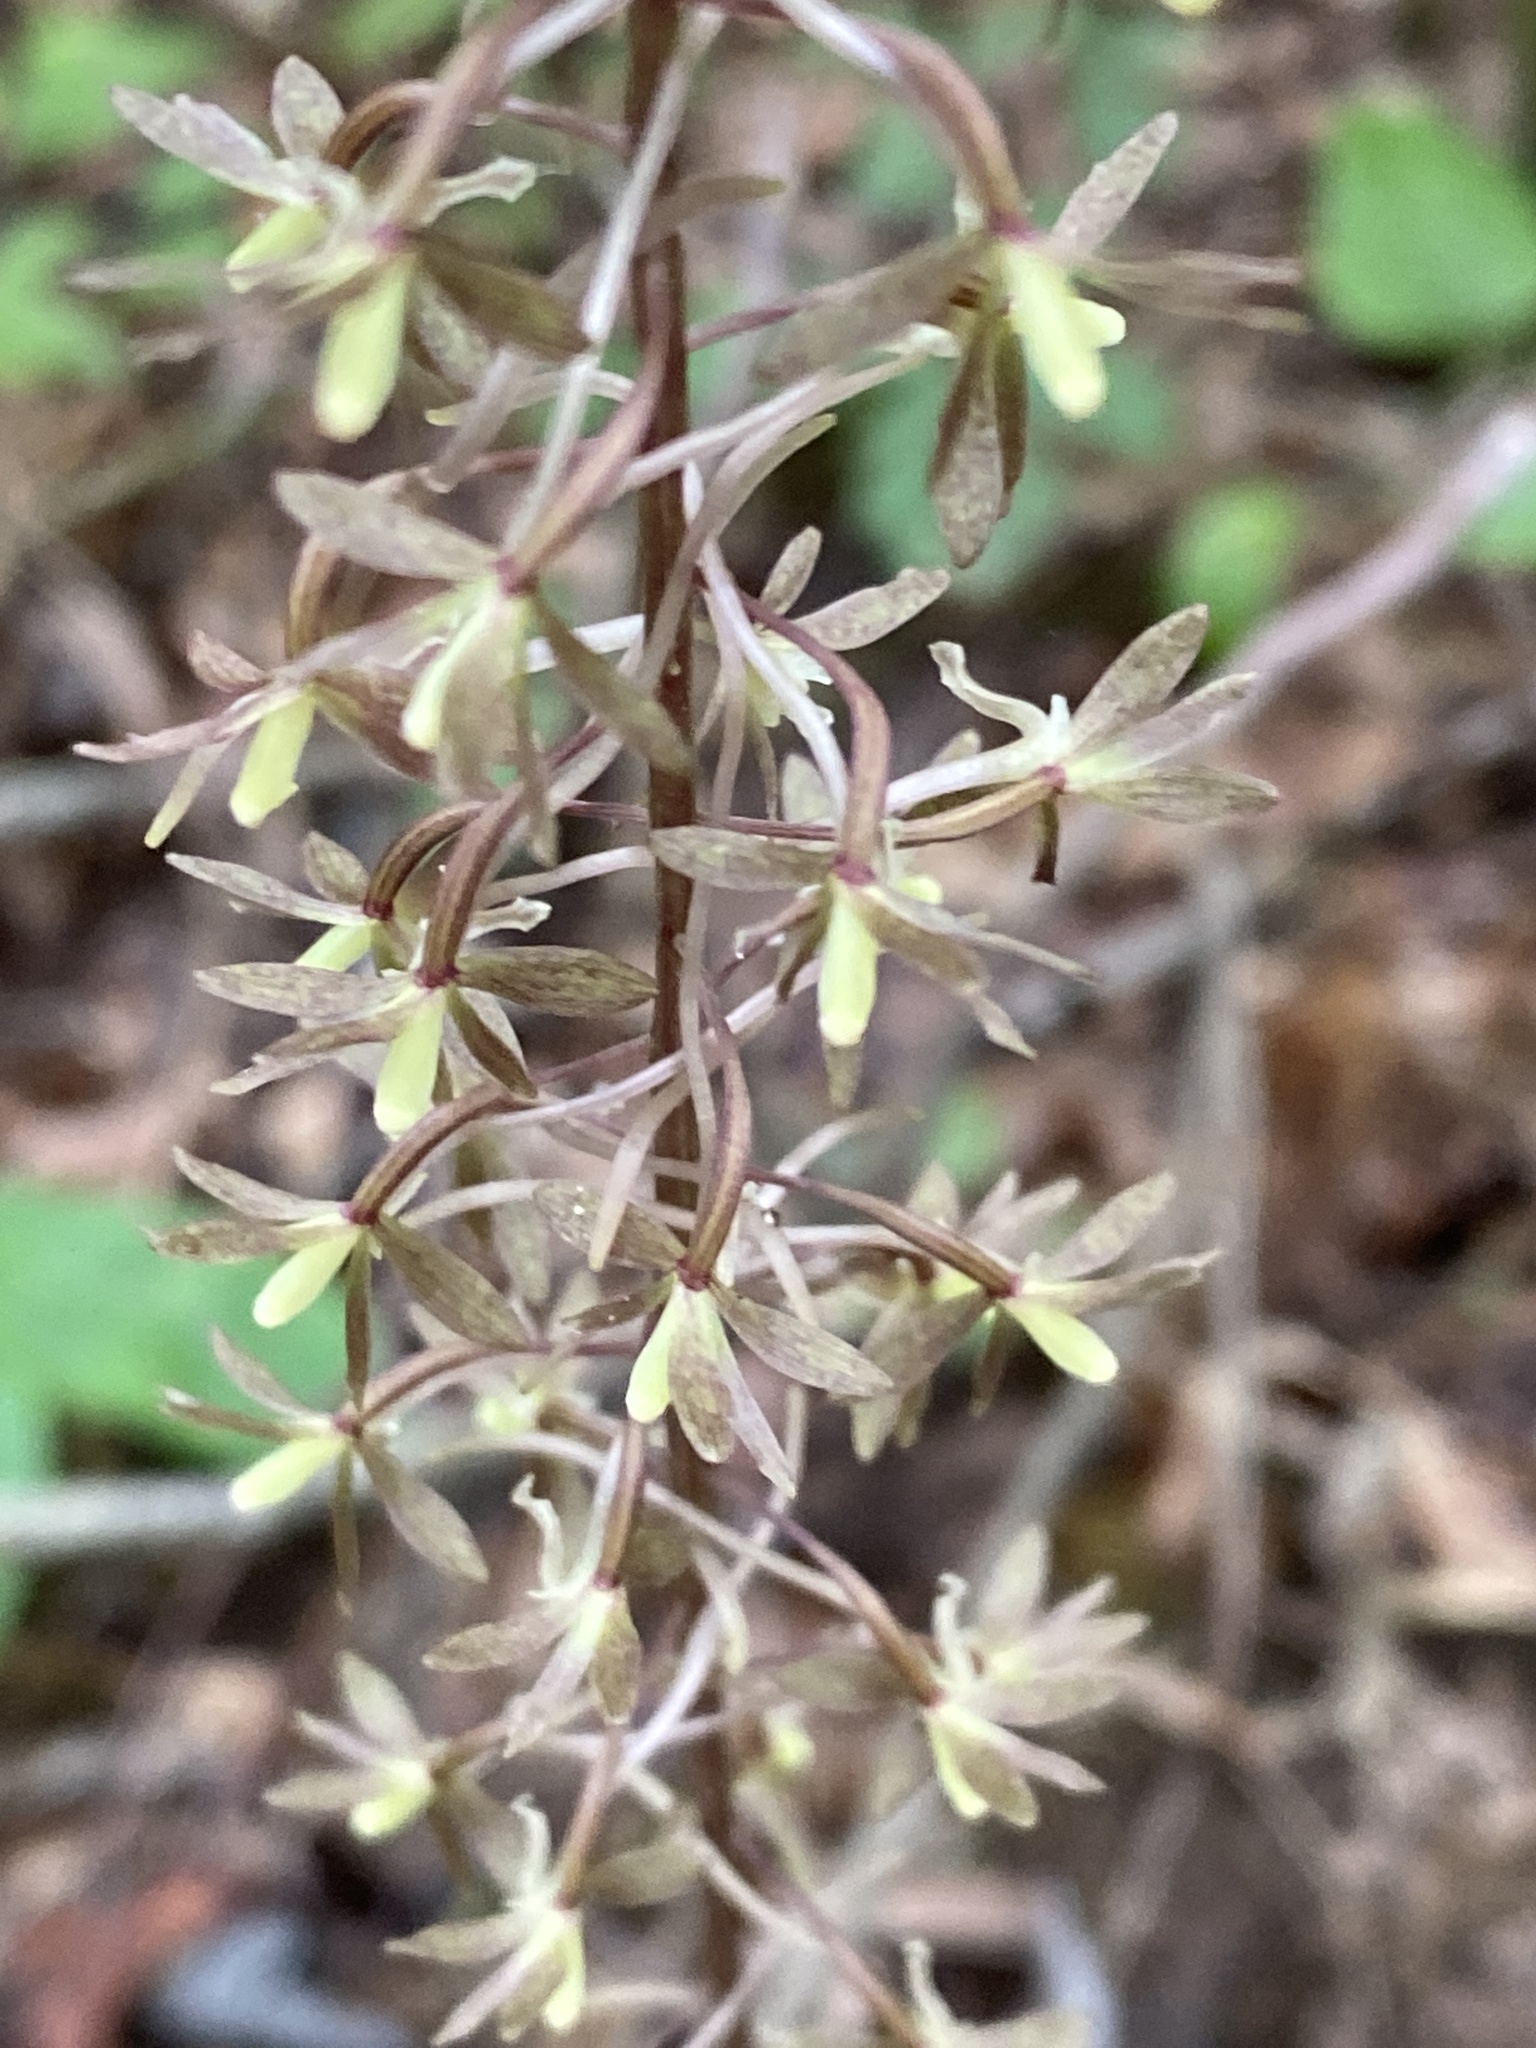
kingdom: Plantae
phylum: Tracheophyta
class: Liliopsida
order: Asparagales
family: Orchidaceae
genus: Tipularia
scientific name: Tipularia discolor
